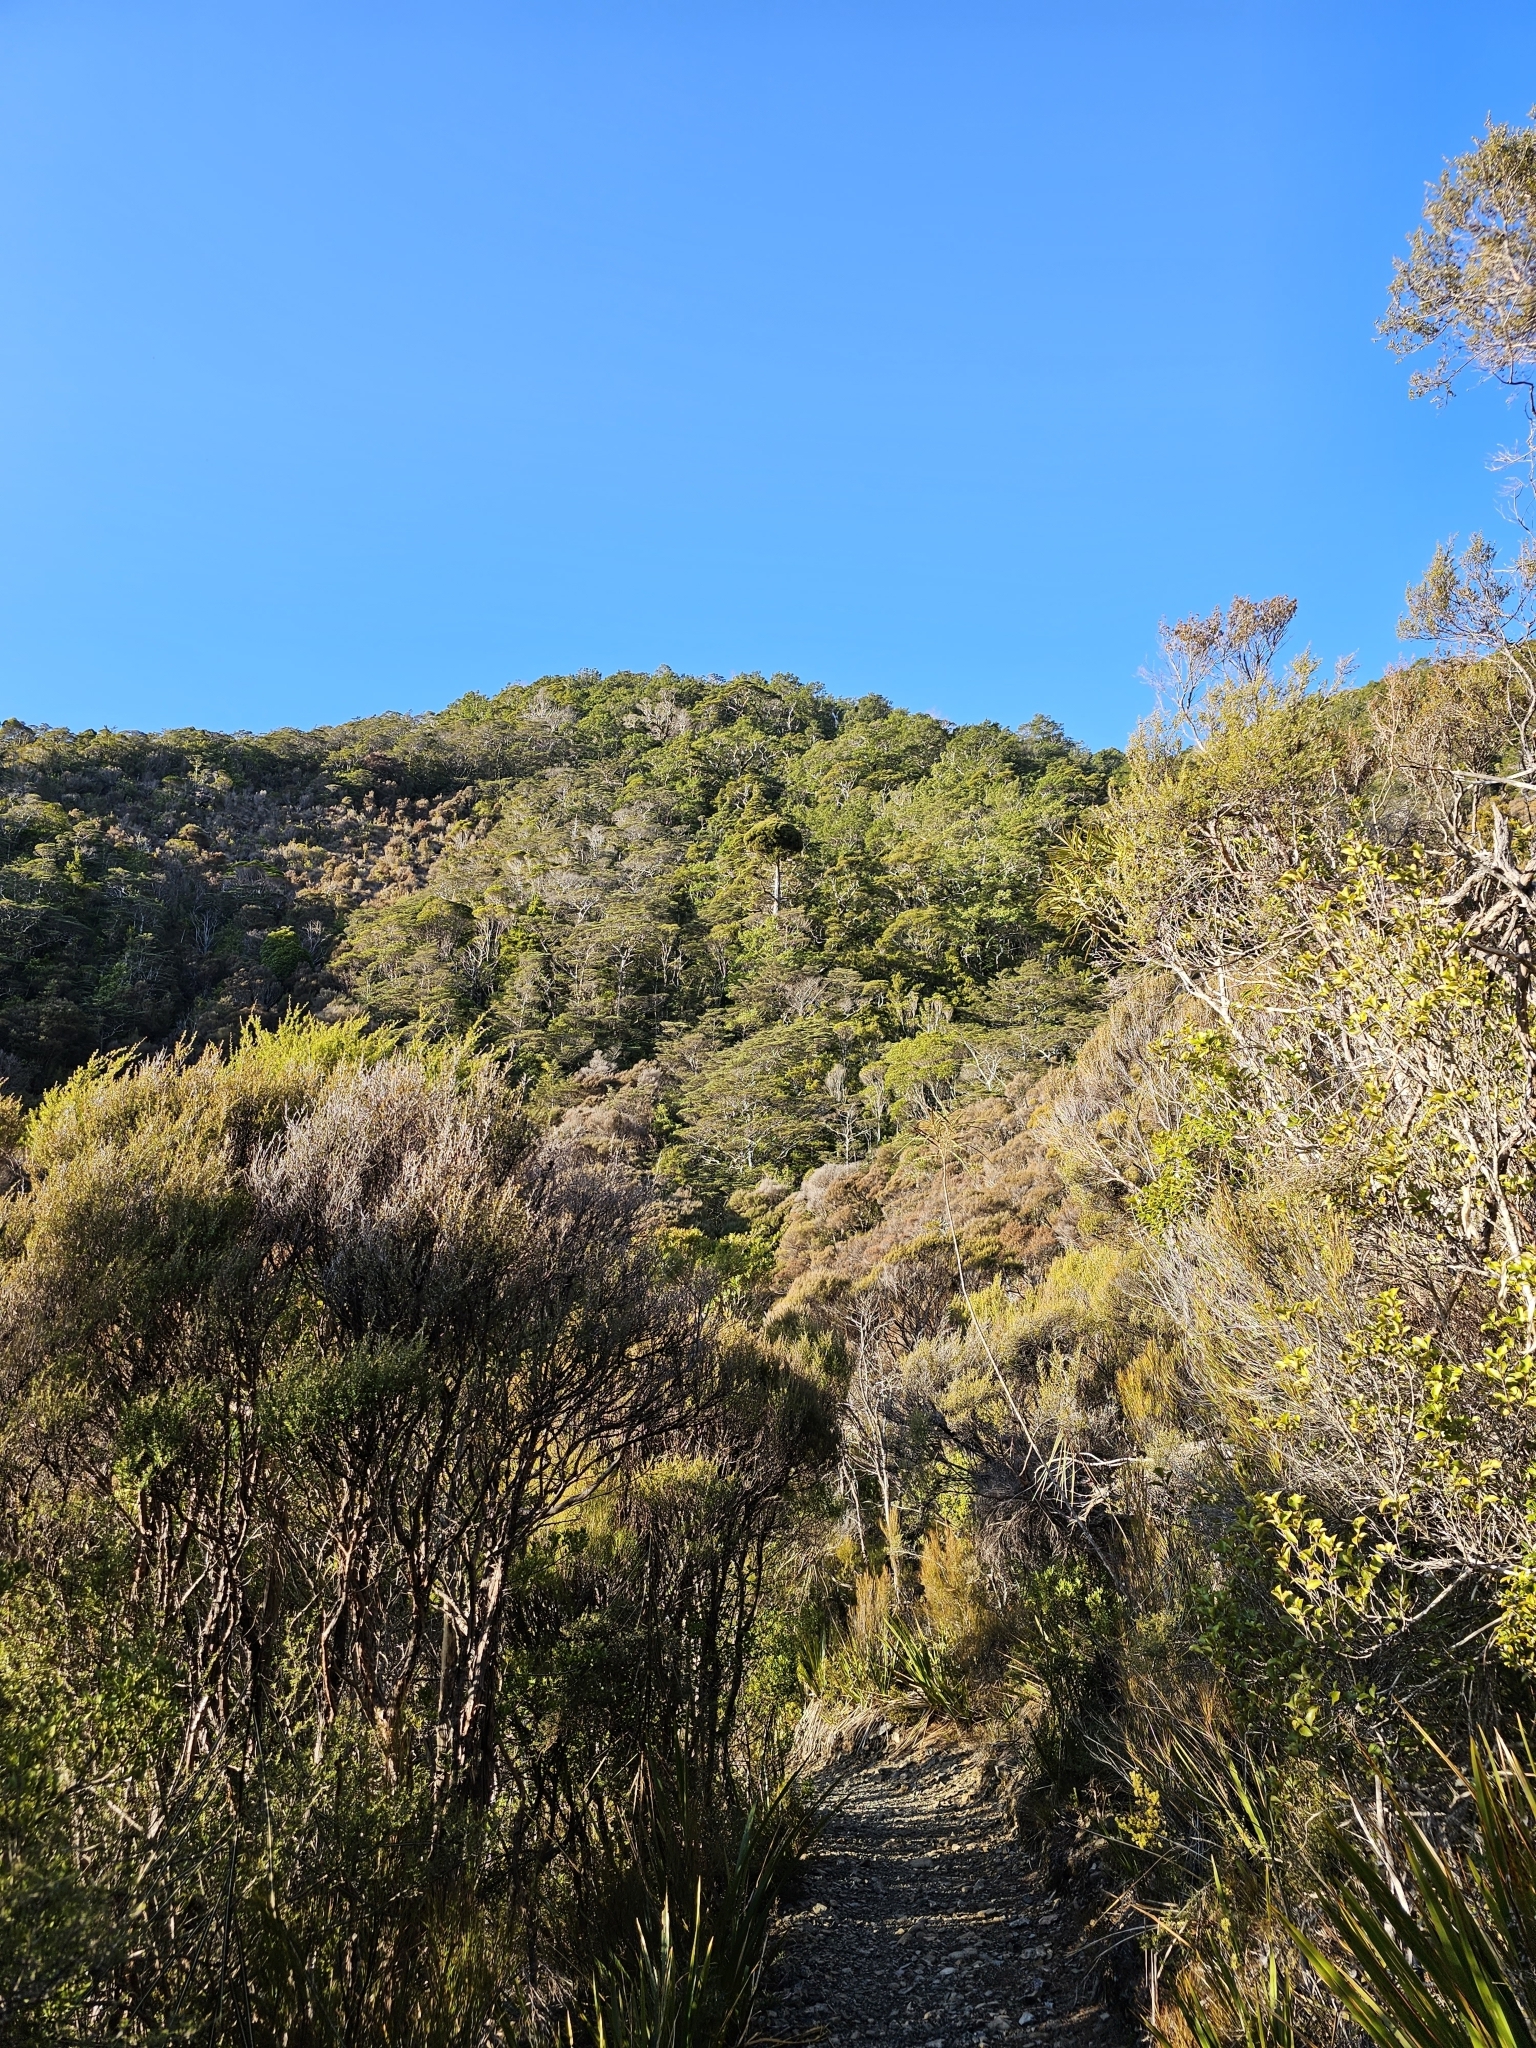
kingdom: Plantae
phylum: Tracheophyta
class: Pinopsida
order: Pinales
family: Cupressaceae
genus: Libocedrus
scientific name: Libocedrus bidwillii
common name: Cedar
